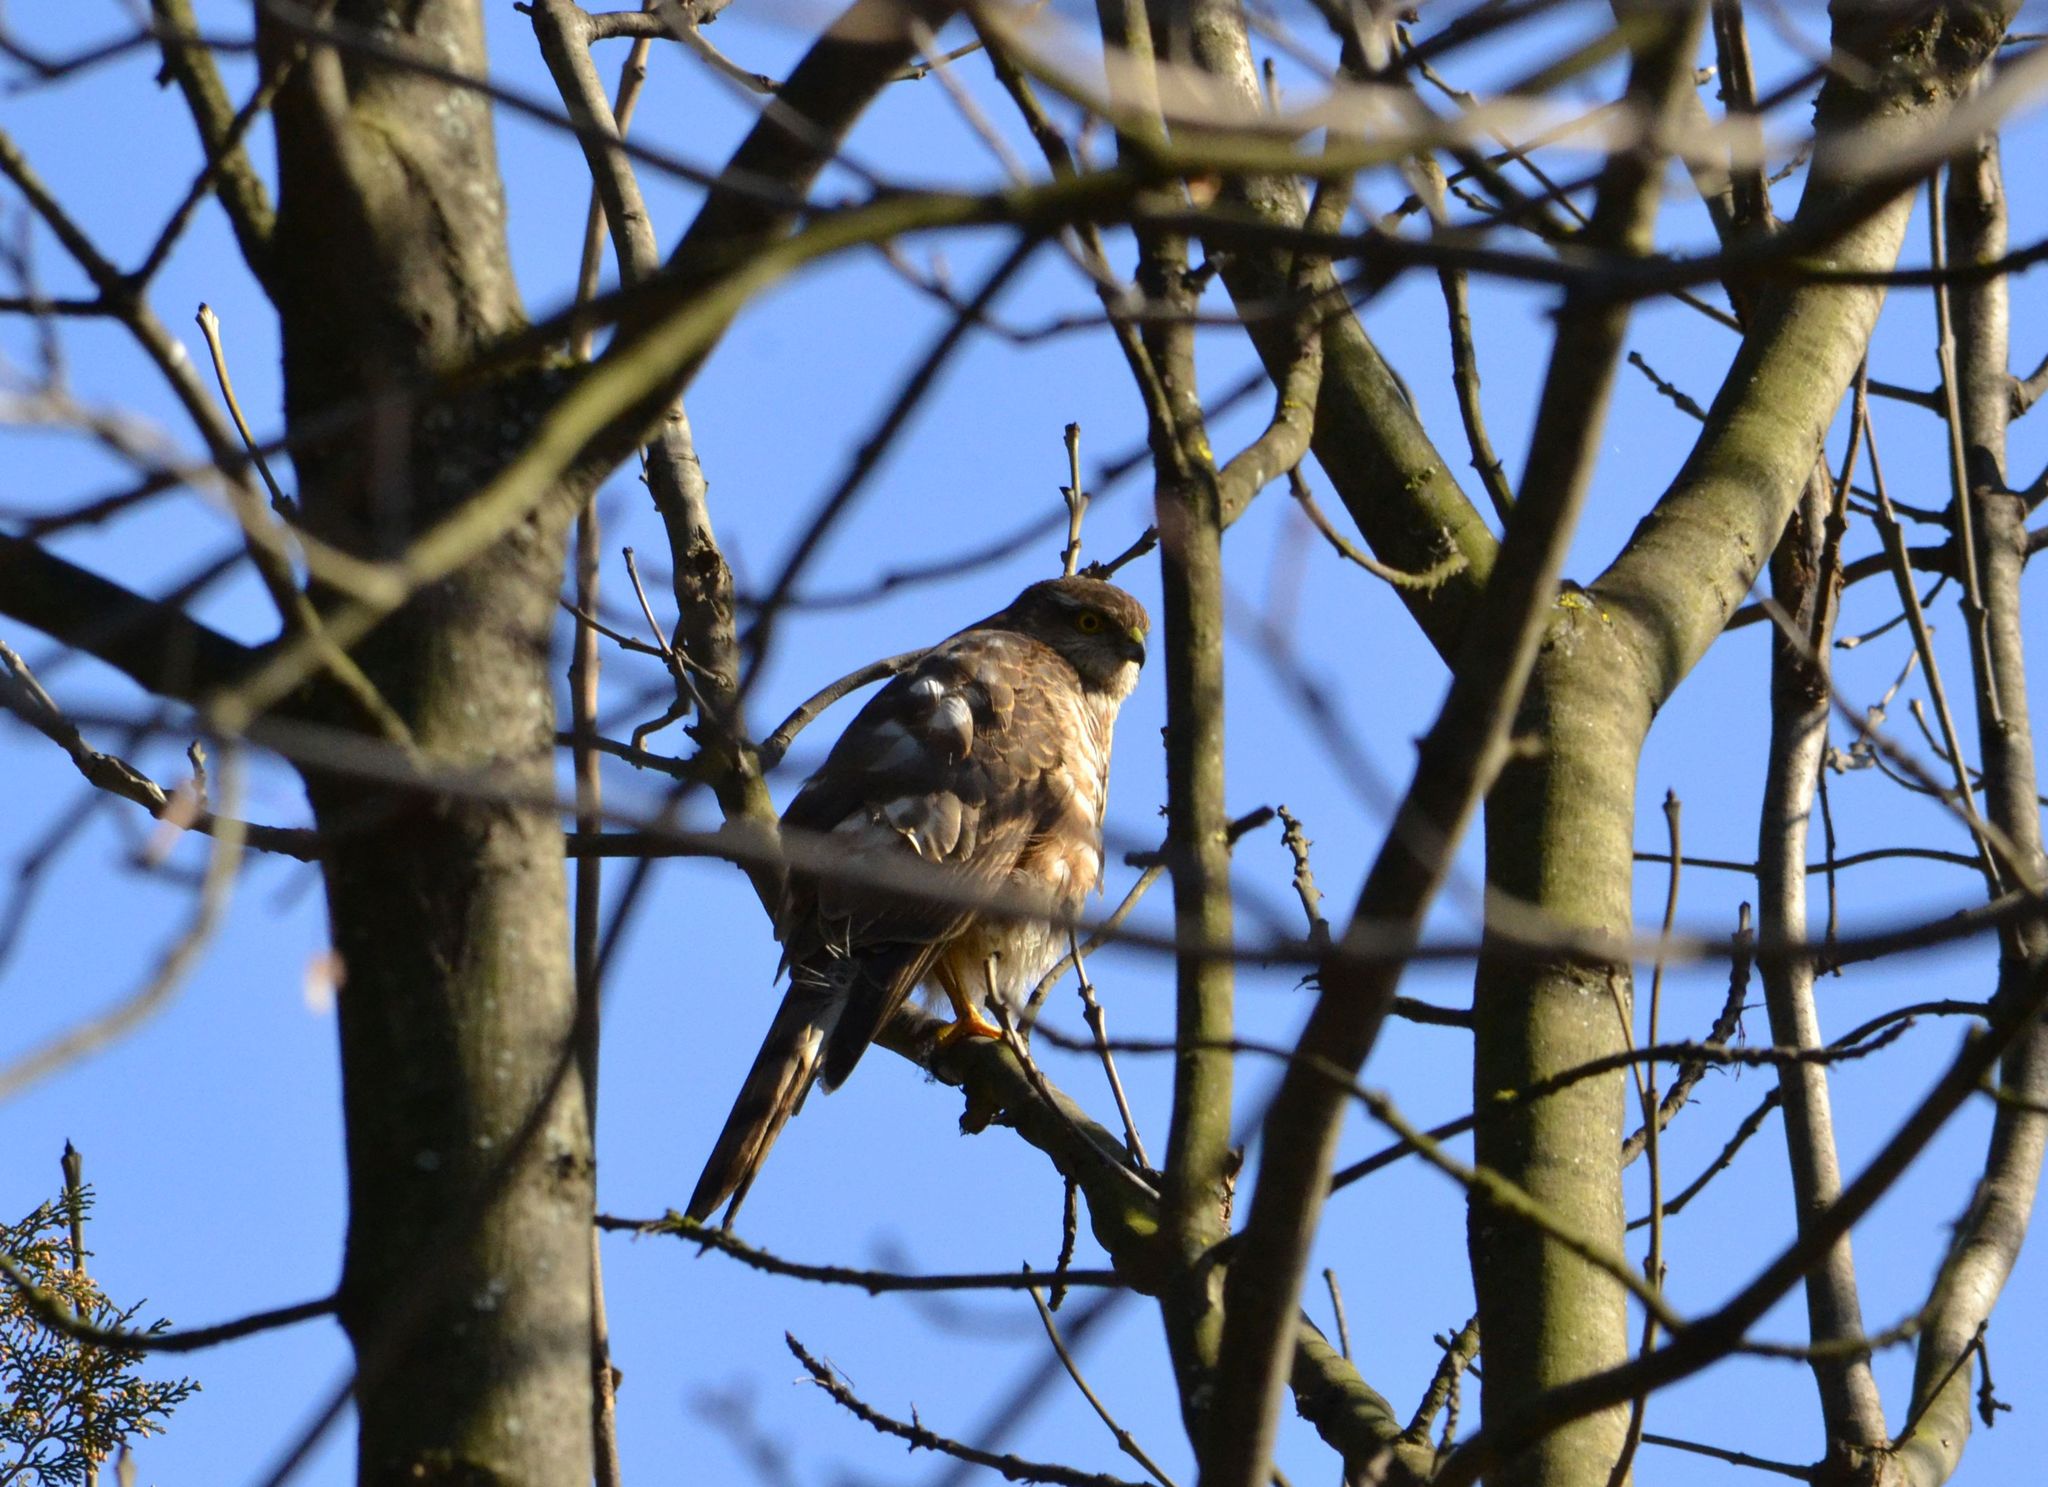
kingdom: Animalia
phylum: Chordata
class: Aves
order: Accipitriformes
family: Accipitridae
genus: Accipiter
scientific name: Accipiter nisus
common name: Eurasian sparrowhawk
